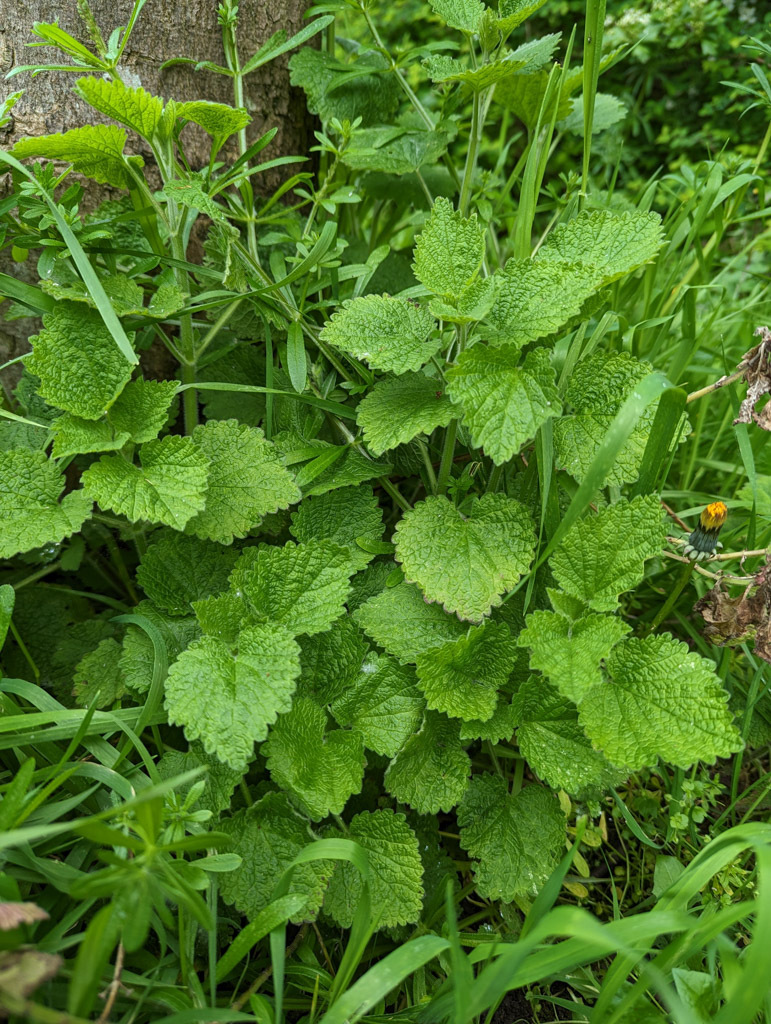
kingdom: Plantae
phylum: Tracheophyta
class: Magnoliopsida
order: Lamiales
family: Lamiaceae
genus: Ballota
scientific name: Ballota nigra
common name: Black horehound
